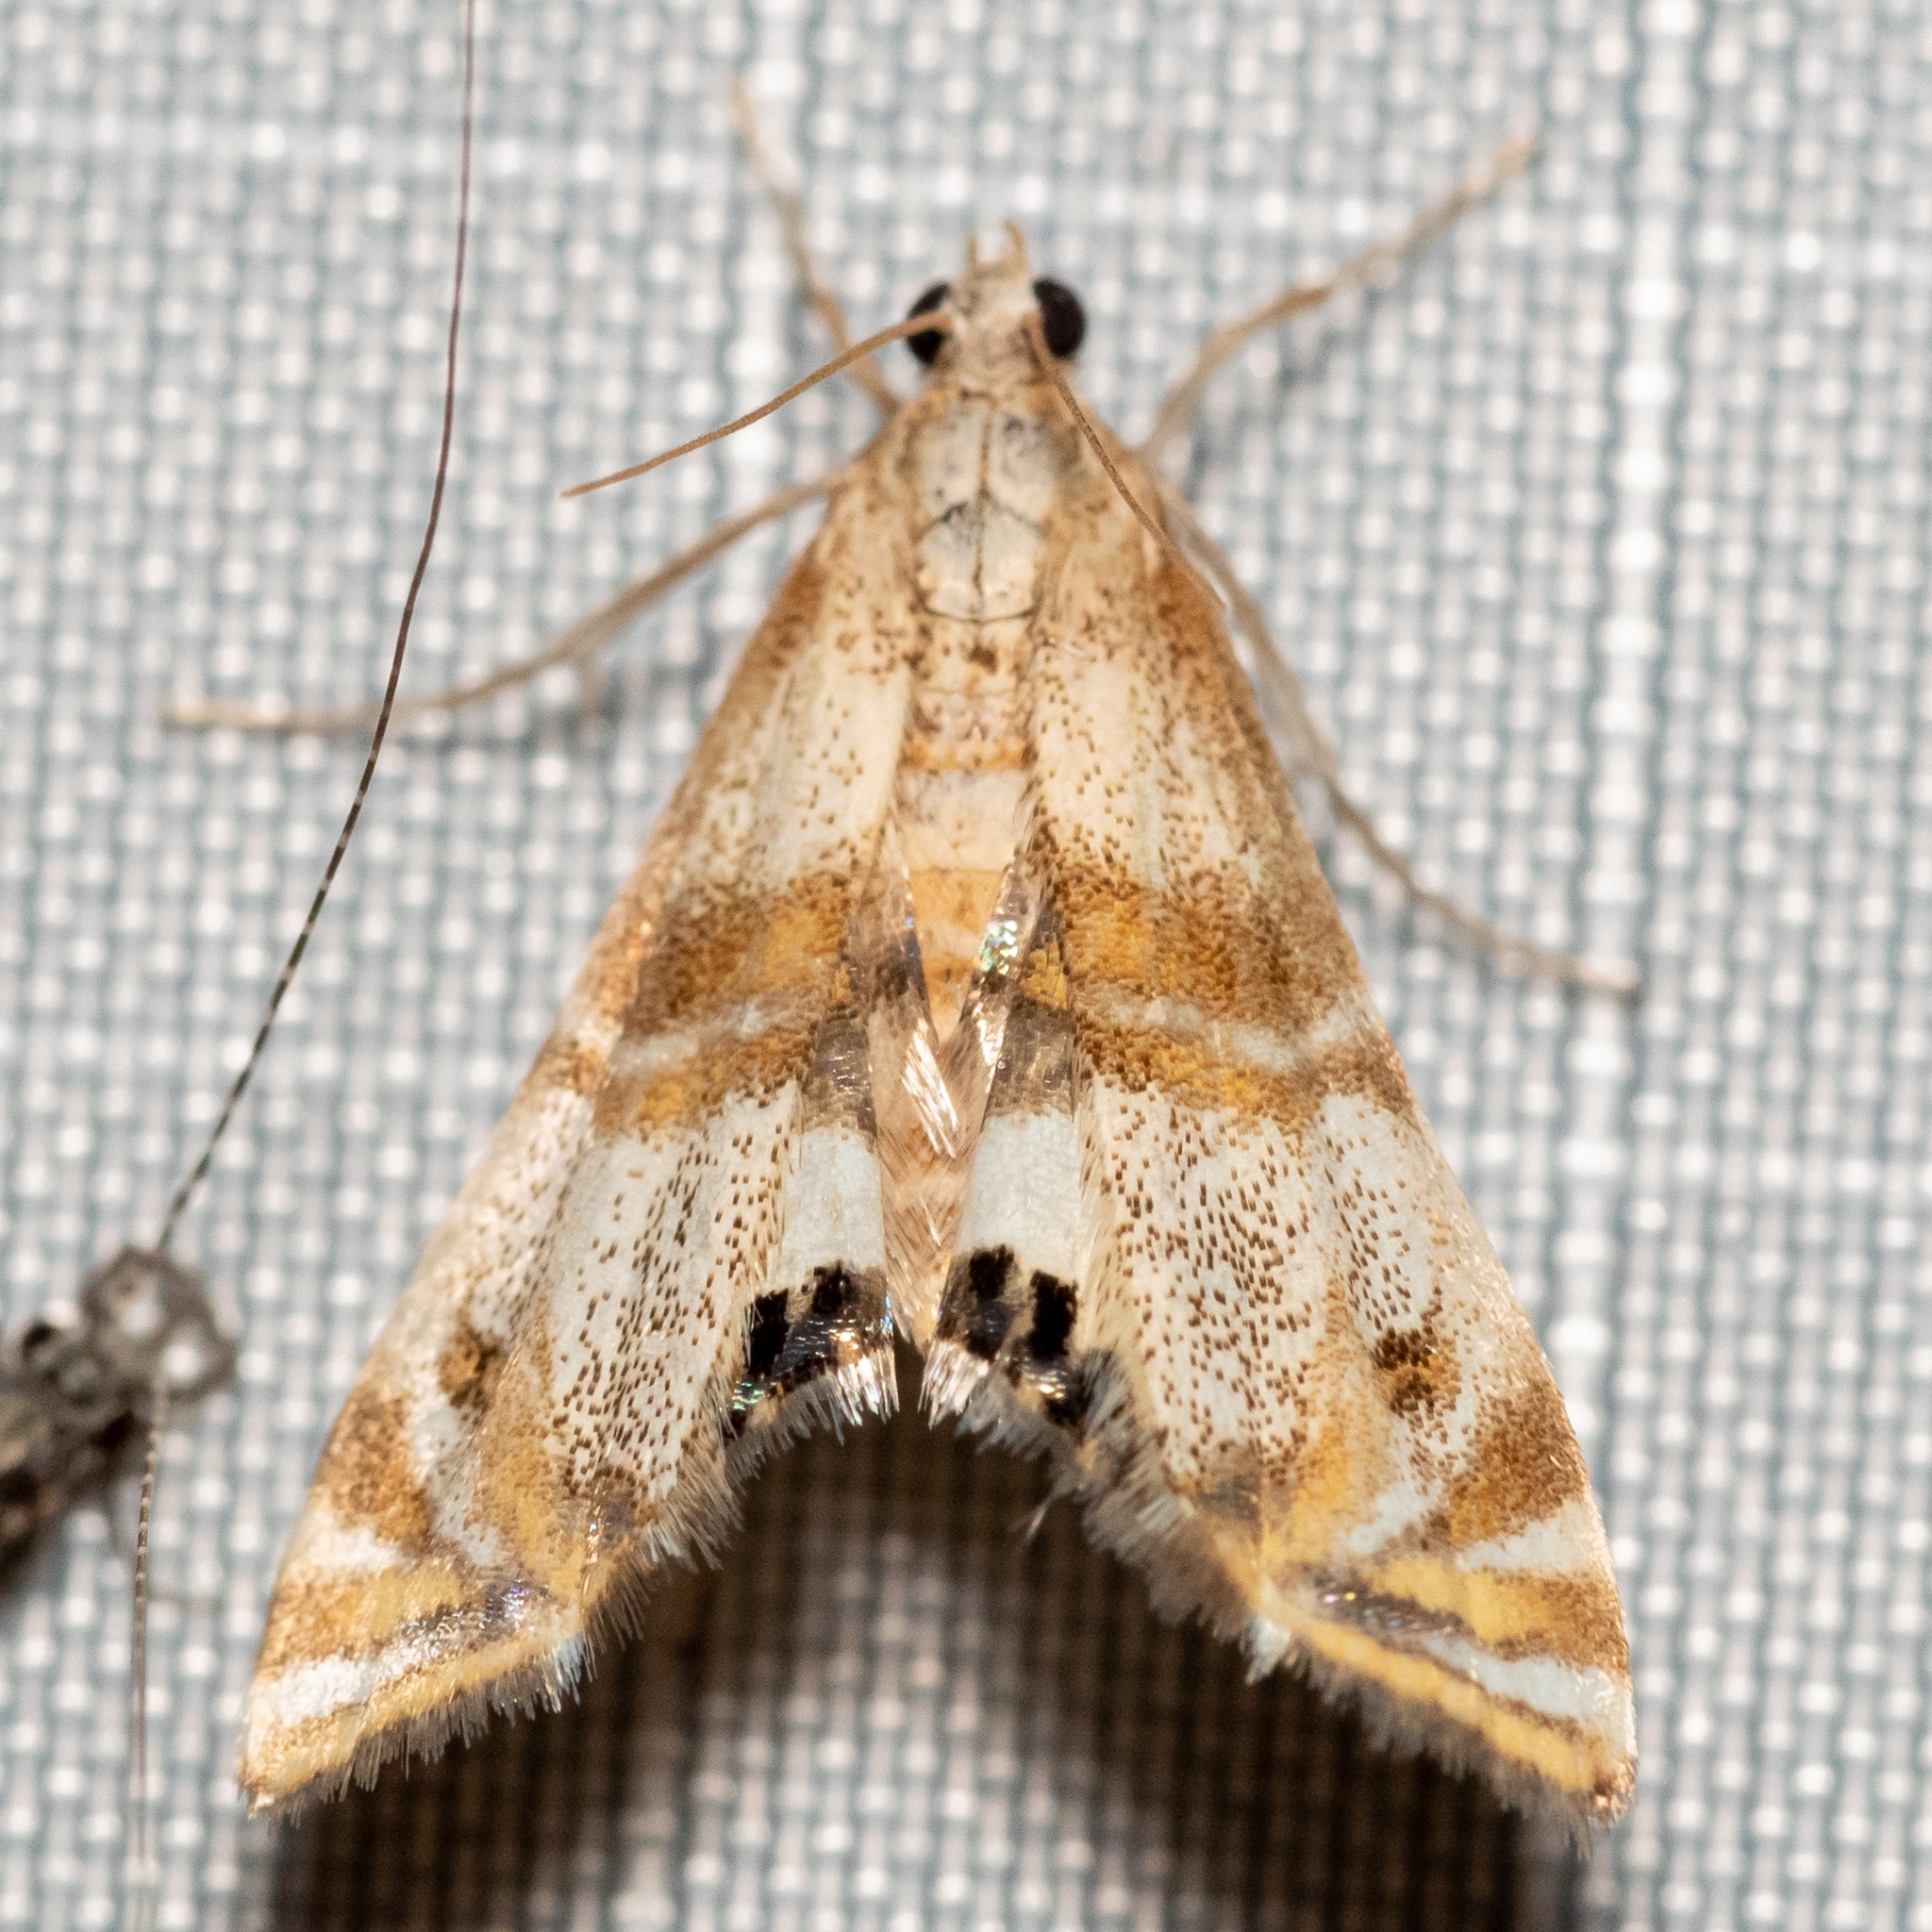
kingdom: Animalia
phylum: Arthropoda
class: Insecta
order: Lepidoptera
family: Crambidae
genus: Petrophila
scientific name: Petrophila bifascialis
